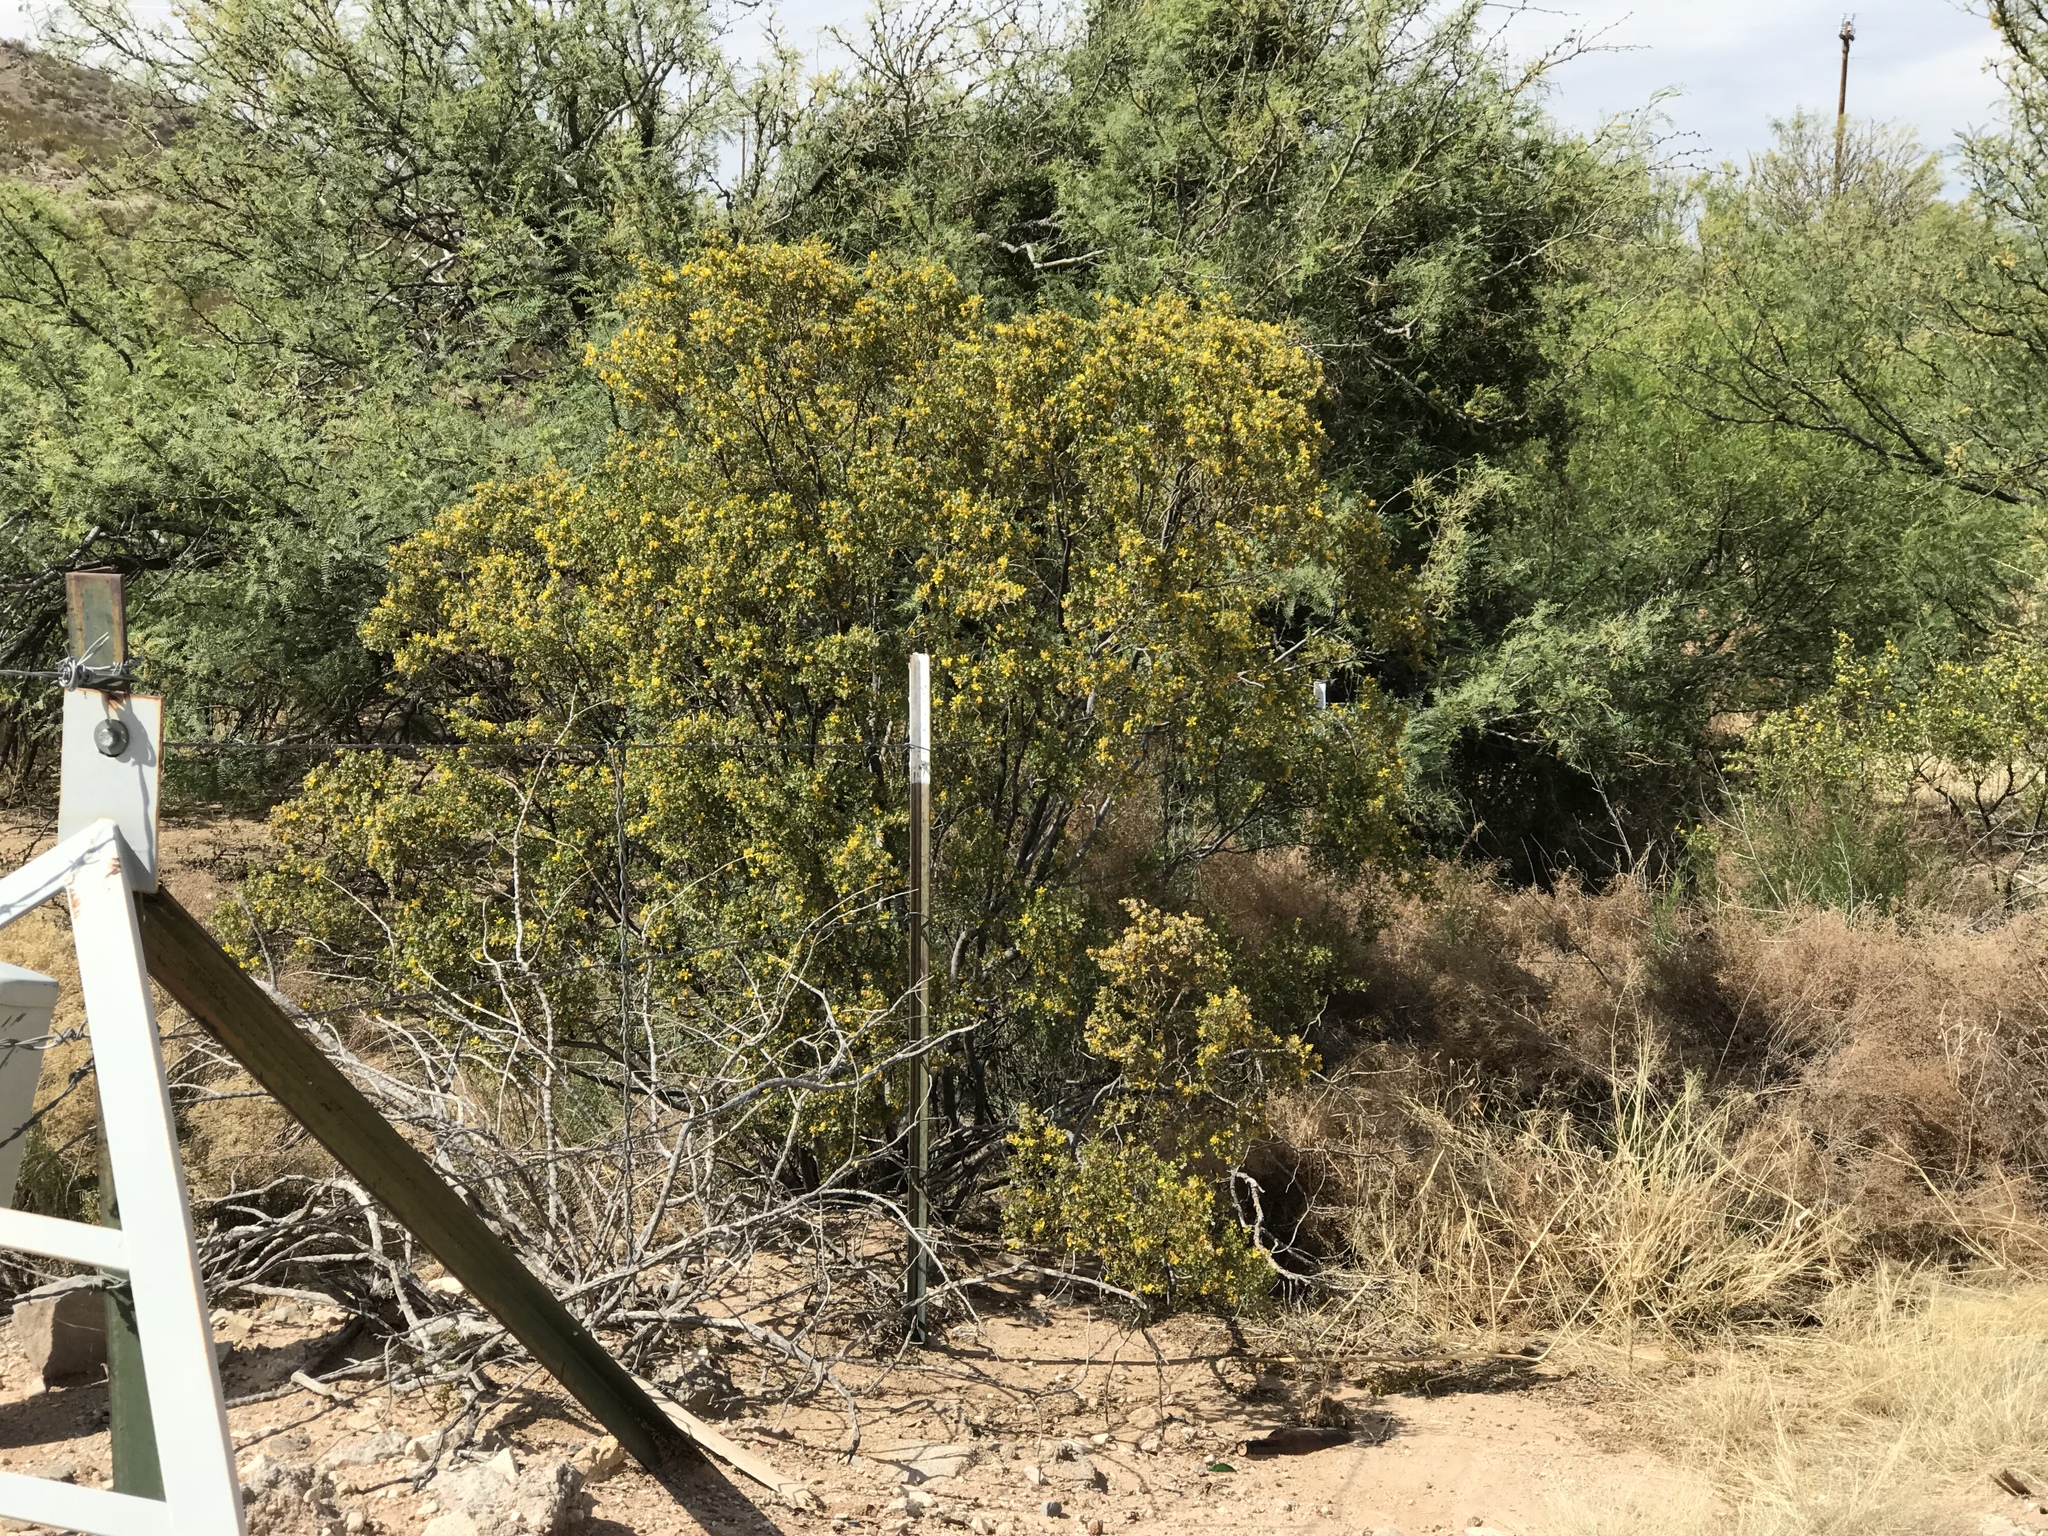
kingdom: Plantae
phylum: Tracheophyta
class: Magnoliopsida
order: Zygophyllales
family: Zygophyllaceae
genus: Larrea
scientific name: Larrea tridentata
